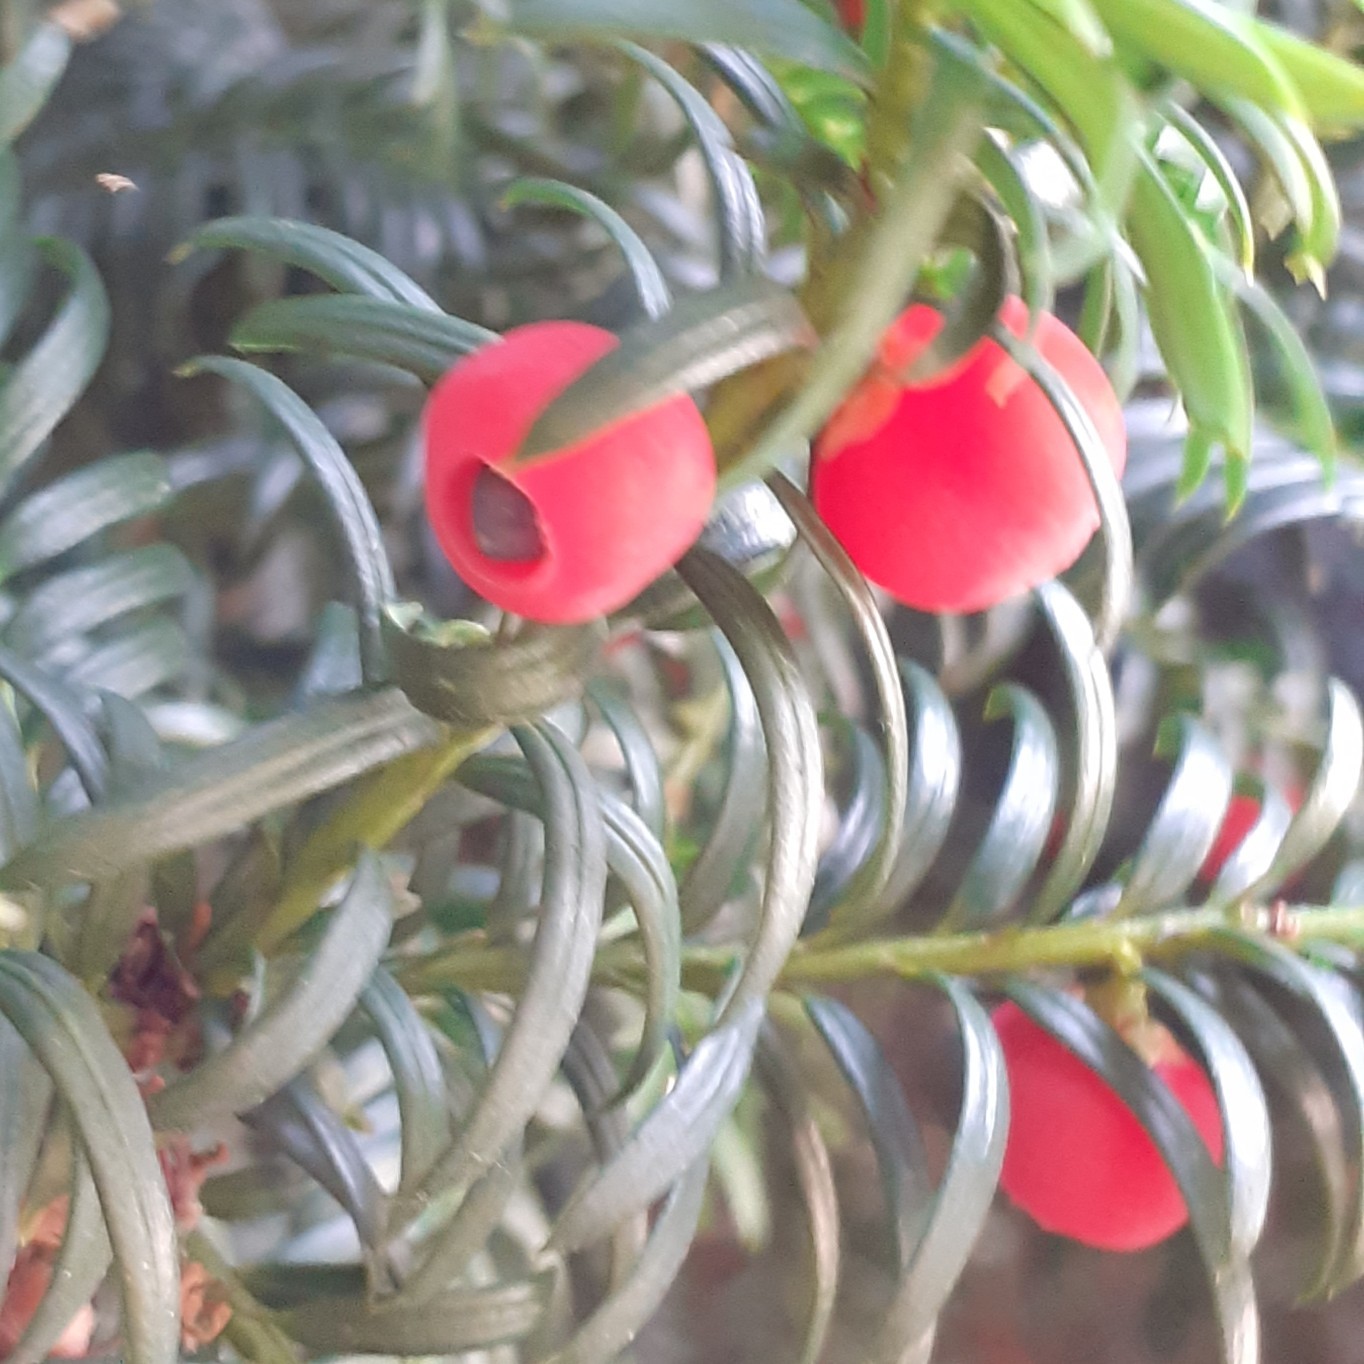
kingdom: Plantae
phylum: Tracheophyta
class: Pinopsida
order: Pinales
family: Taxaceae
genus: Taxus
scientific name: Taxus baccata
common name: Yew
